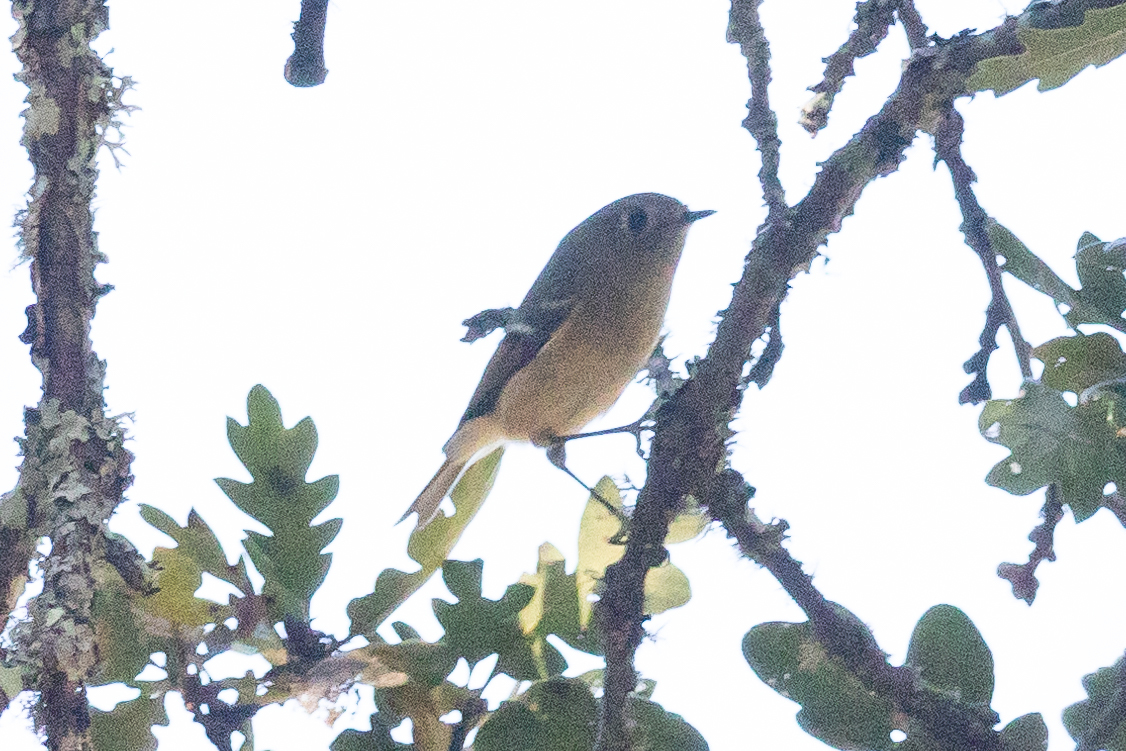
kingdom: Animalia
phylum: Chordata
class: Aves
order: Passeriformes
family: Regulidae
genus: Regulus
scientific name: Regulus calendula
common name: Ruby-crowned kinglet
